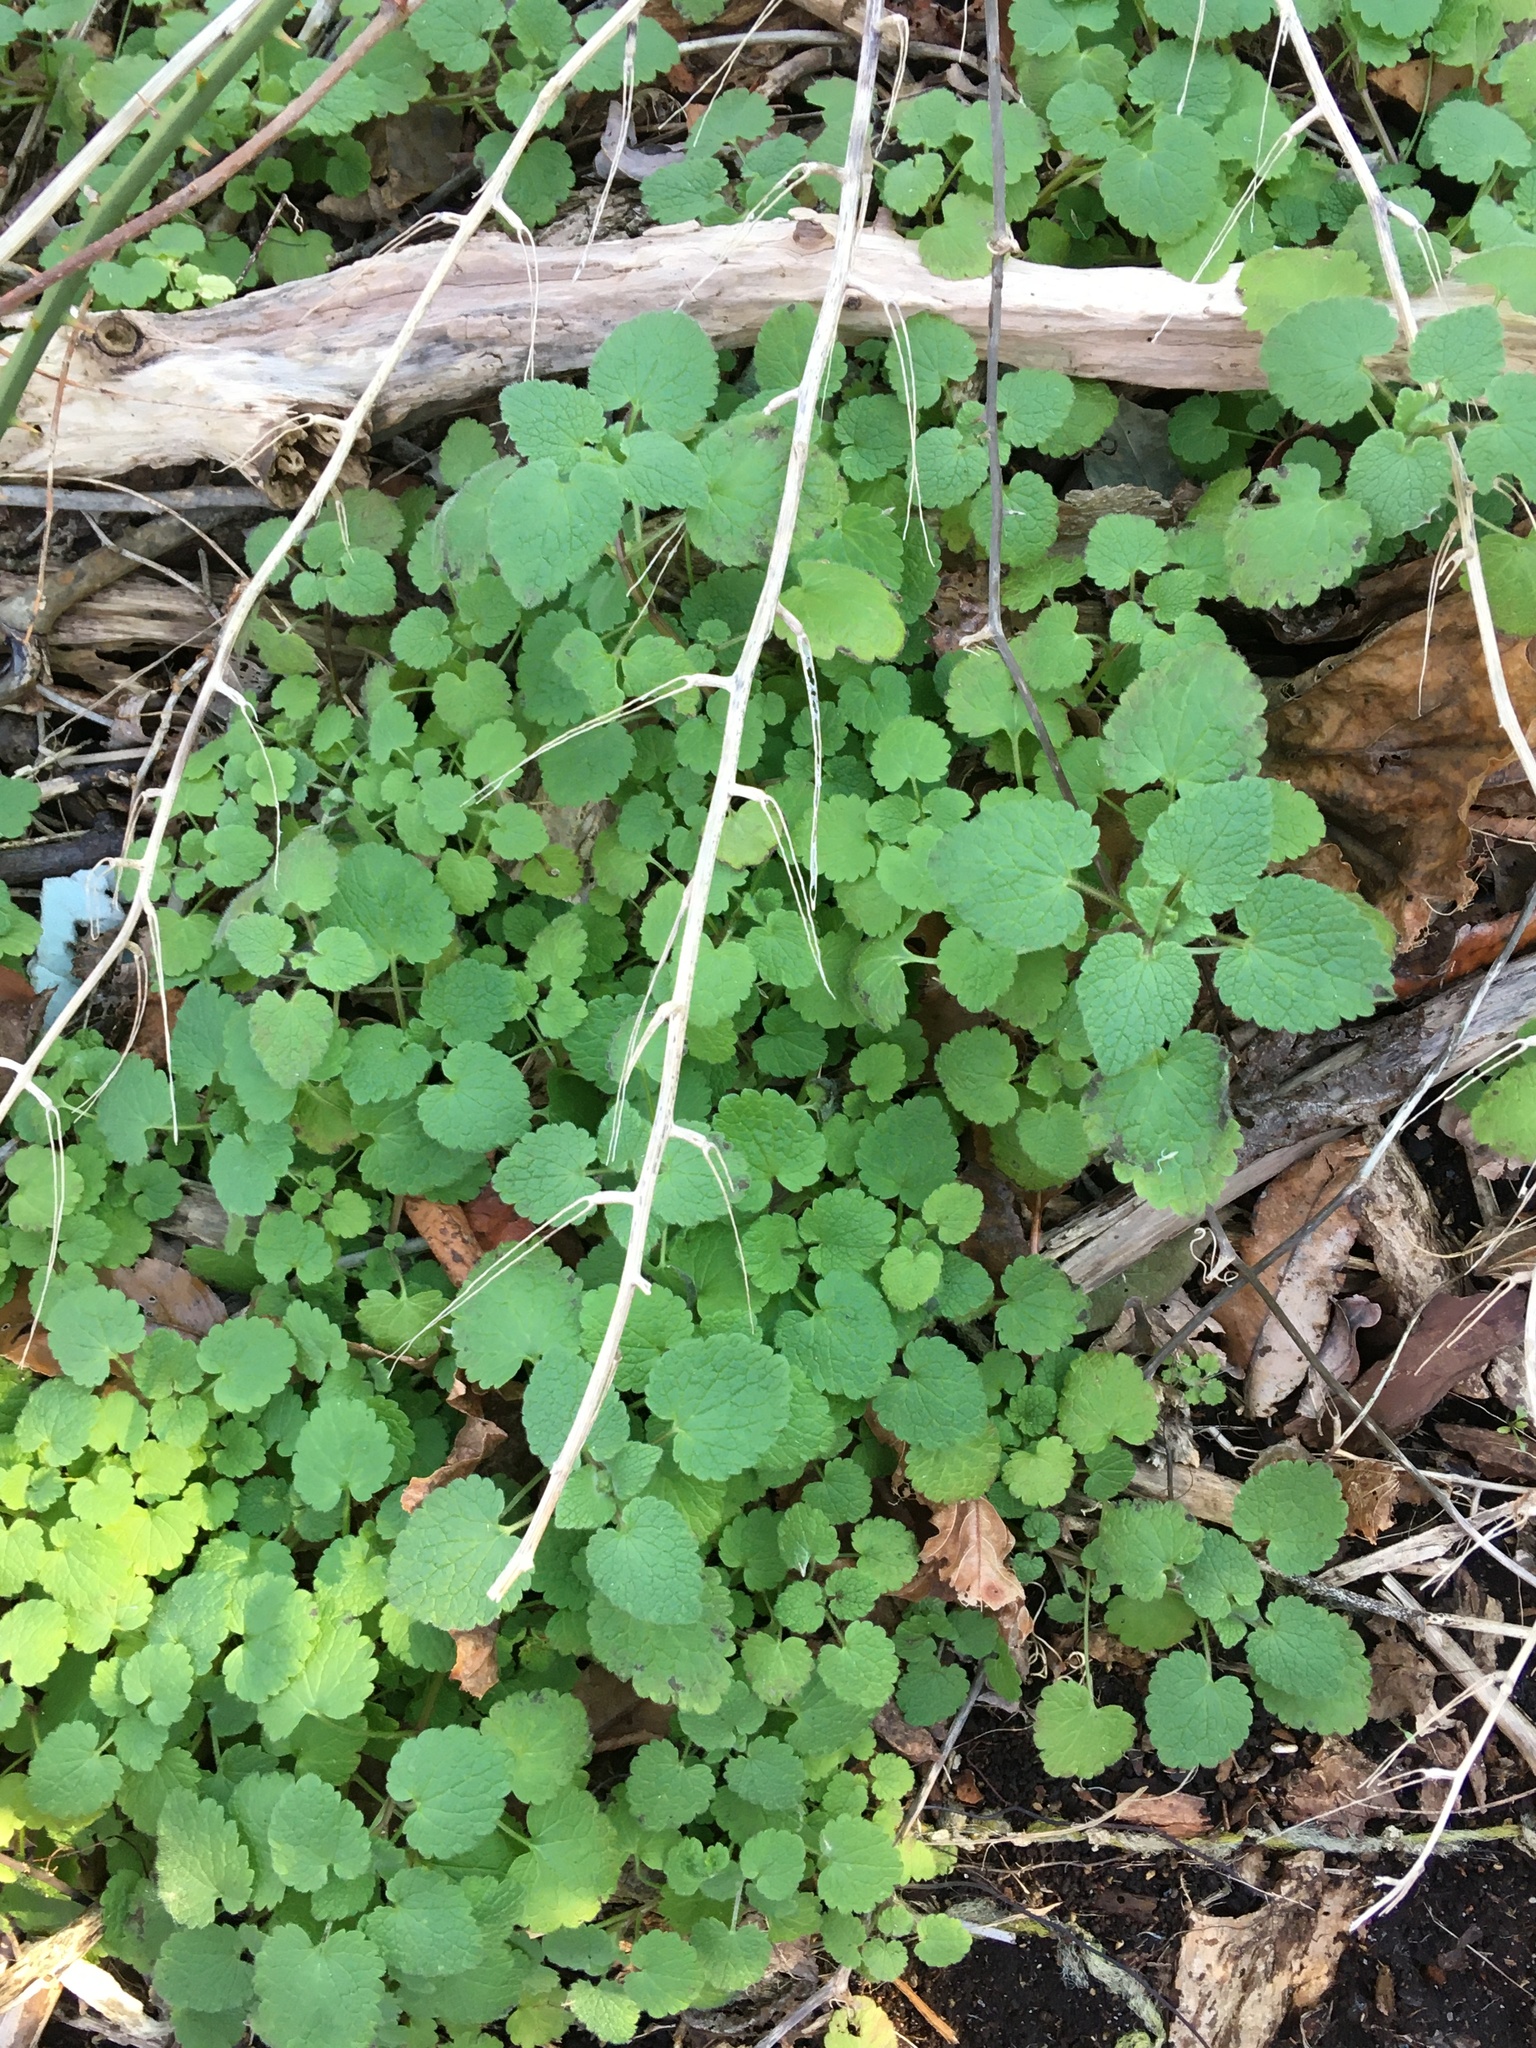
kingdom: Plantae
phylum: Tracheophyta
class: Magnoliopsida
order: Lamiales
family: Lamiaceae
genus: Lamium
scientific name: Lamium purpureum
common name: Red dead-nettle
